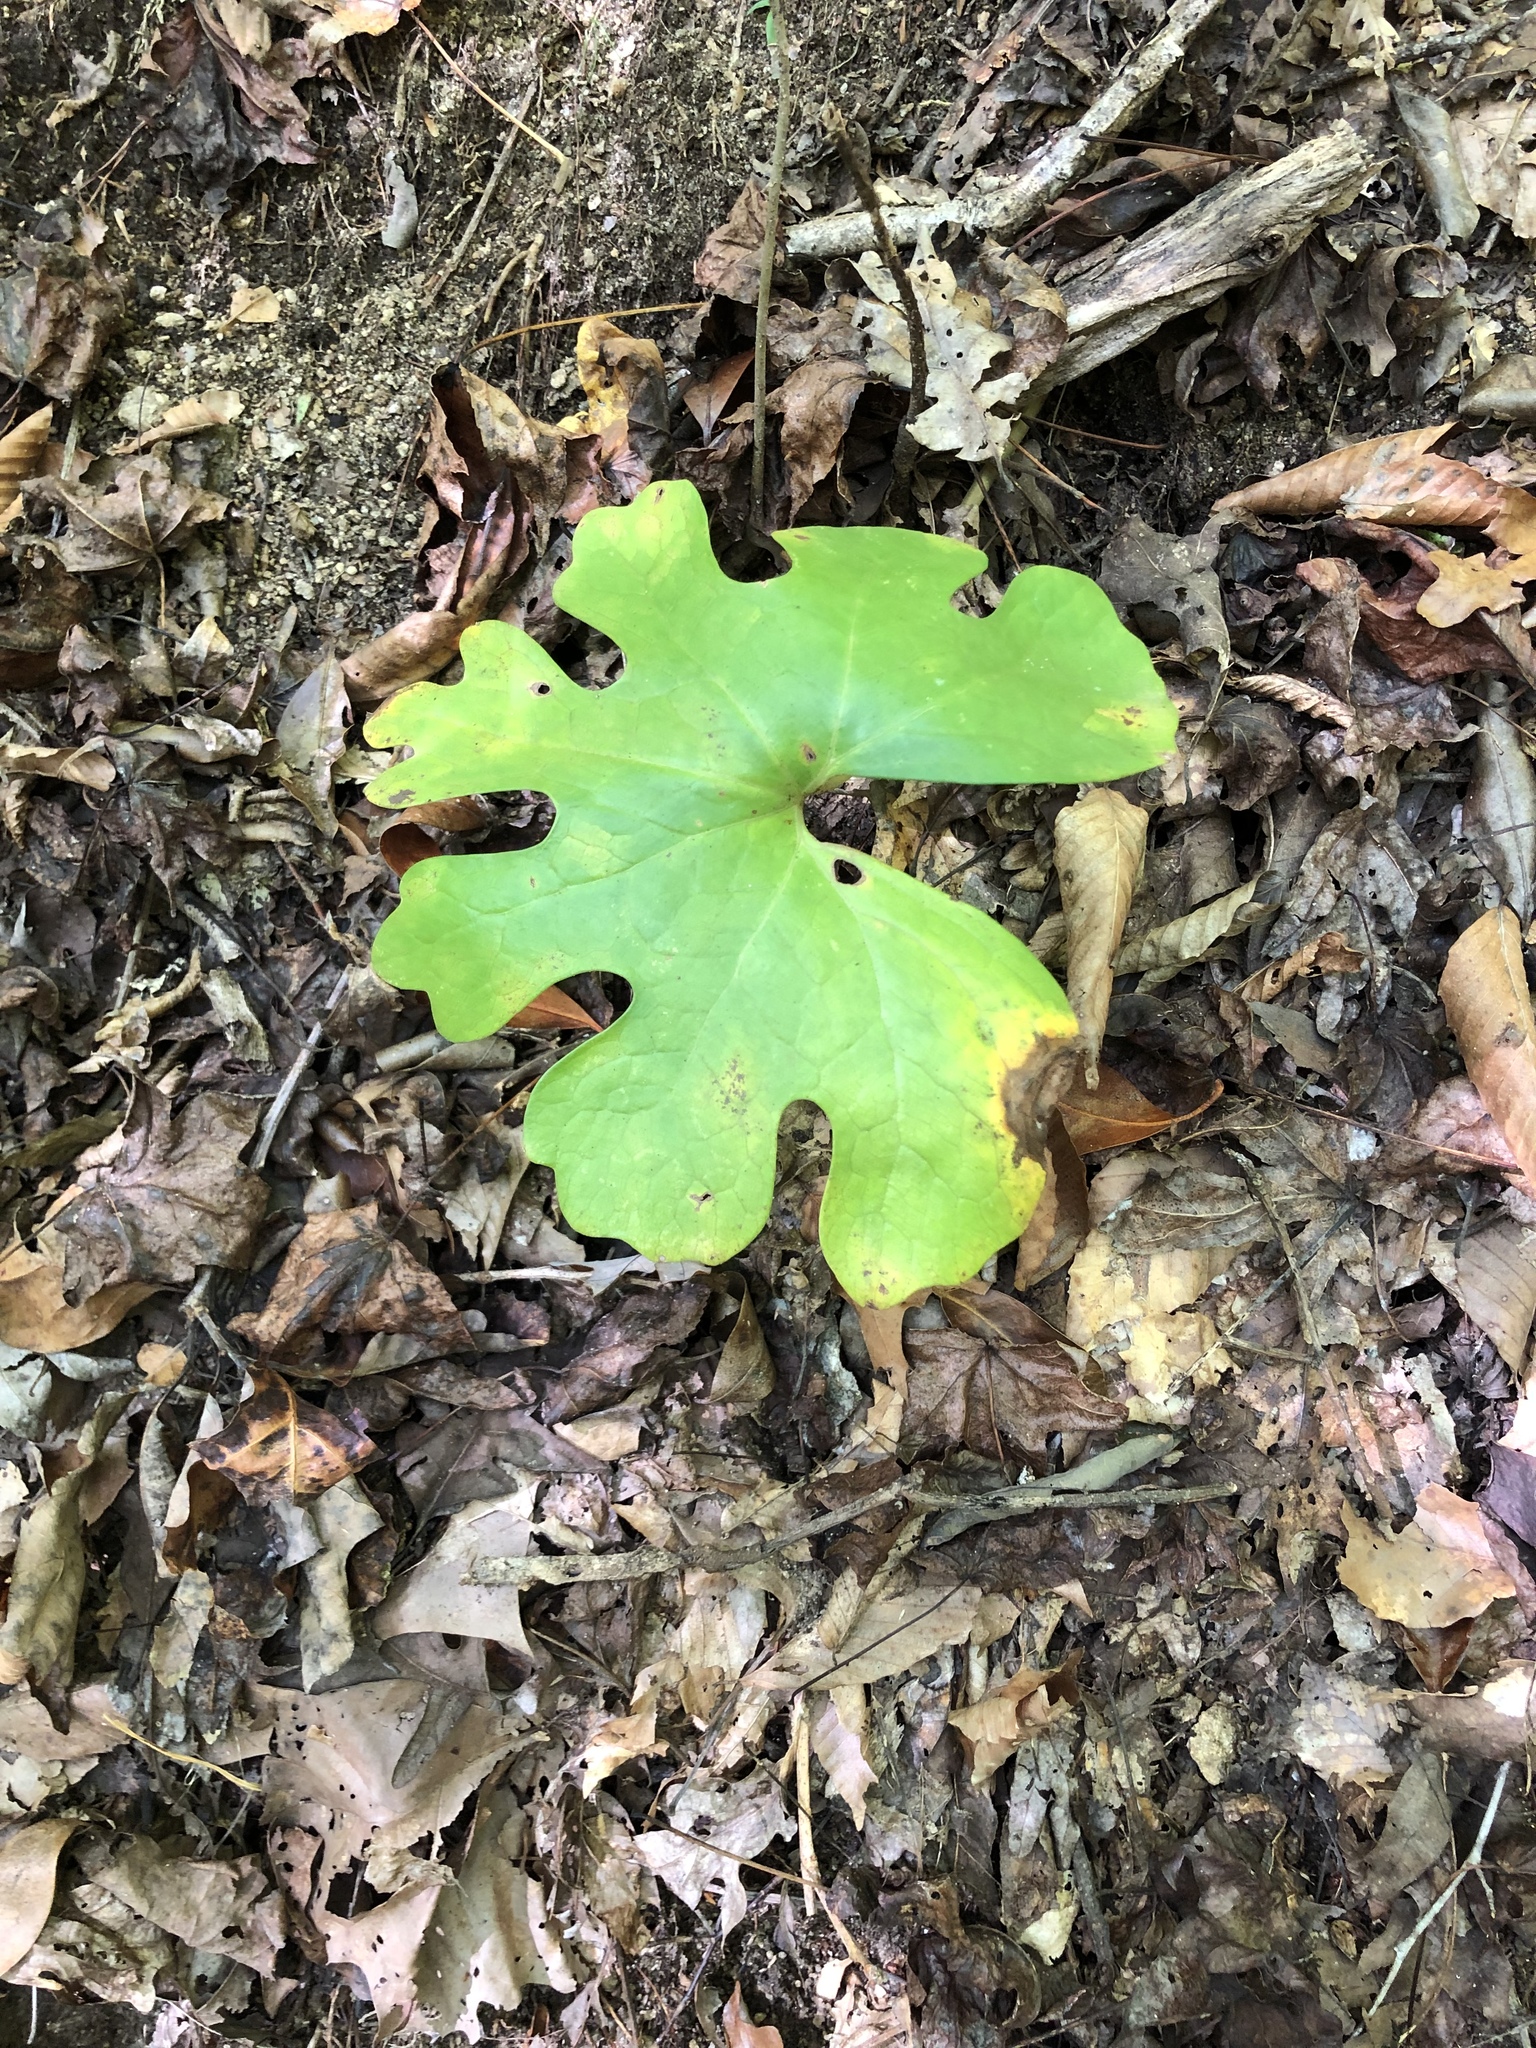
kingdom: Plantae
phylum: Tracheophyta
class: Magnoliopsida
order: Ranunculales
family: Papaveraceae
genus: Sanguinaria
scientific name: Sanguinaria canadensis
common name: Bloodroot
